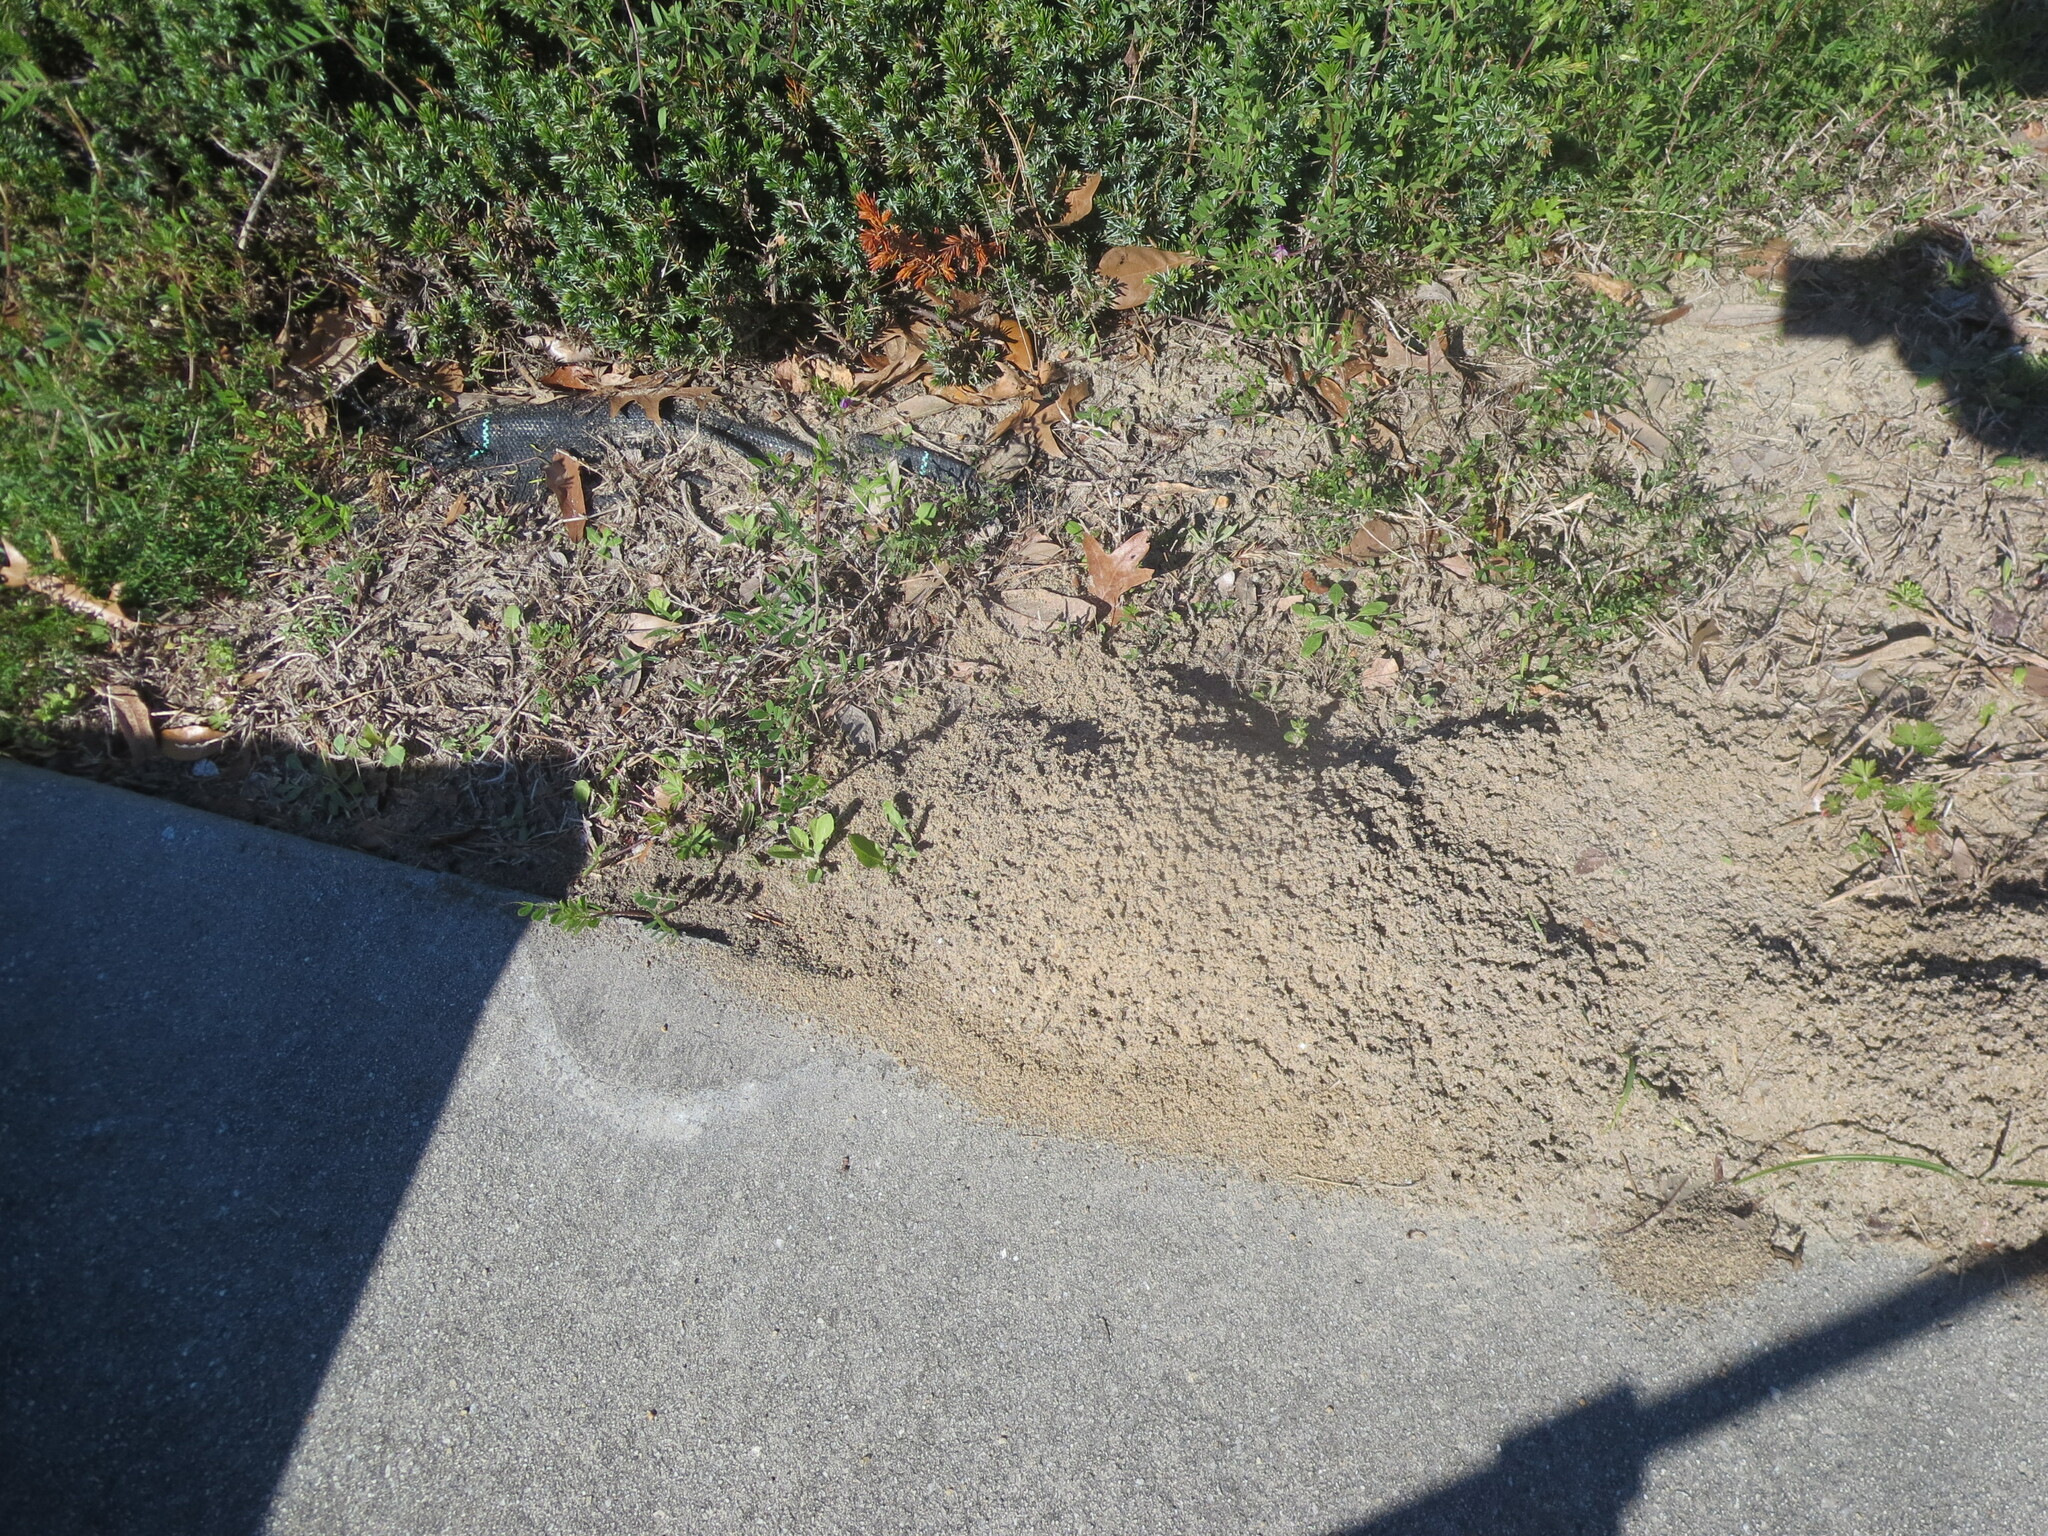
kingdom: Animalia
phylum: Arthropoda
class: Insecta
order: Hymenoptera
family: Formicidae
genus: Solenopsis
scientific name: Solenopsis invicta
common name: Red imported fire ant
